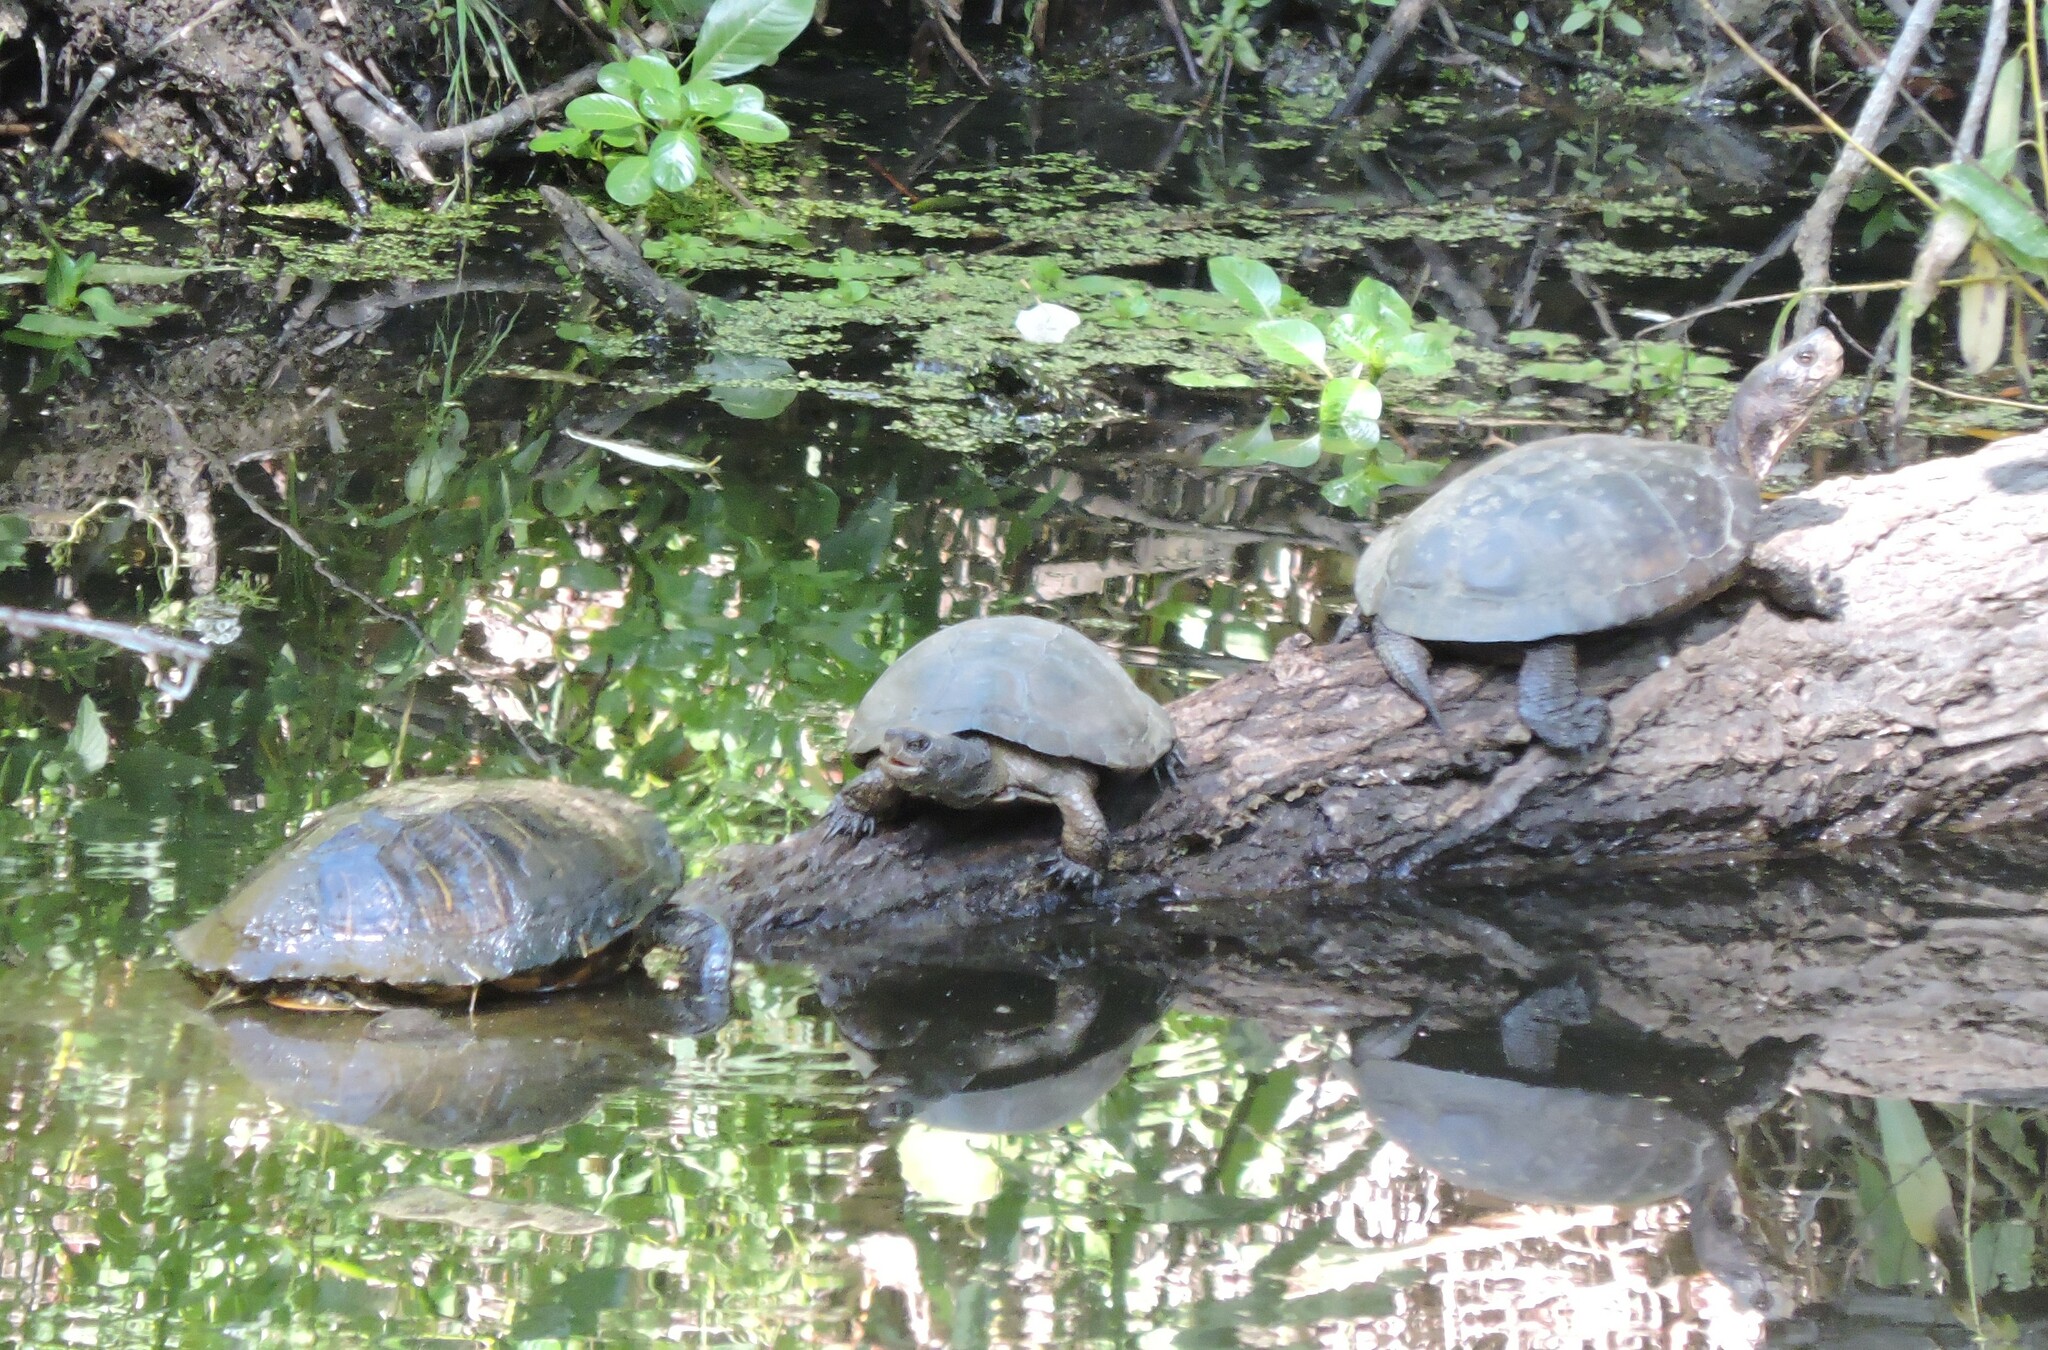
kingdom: Animalia
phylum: Chordata
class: Testudines
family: Emydidae
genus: Actinemys
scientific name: Actinemys marmorata
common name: Western pond turtle
